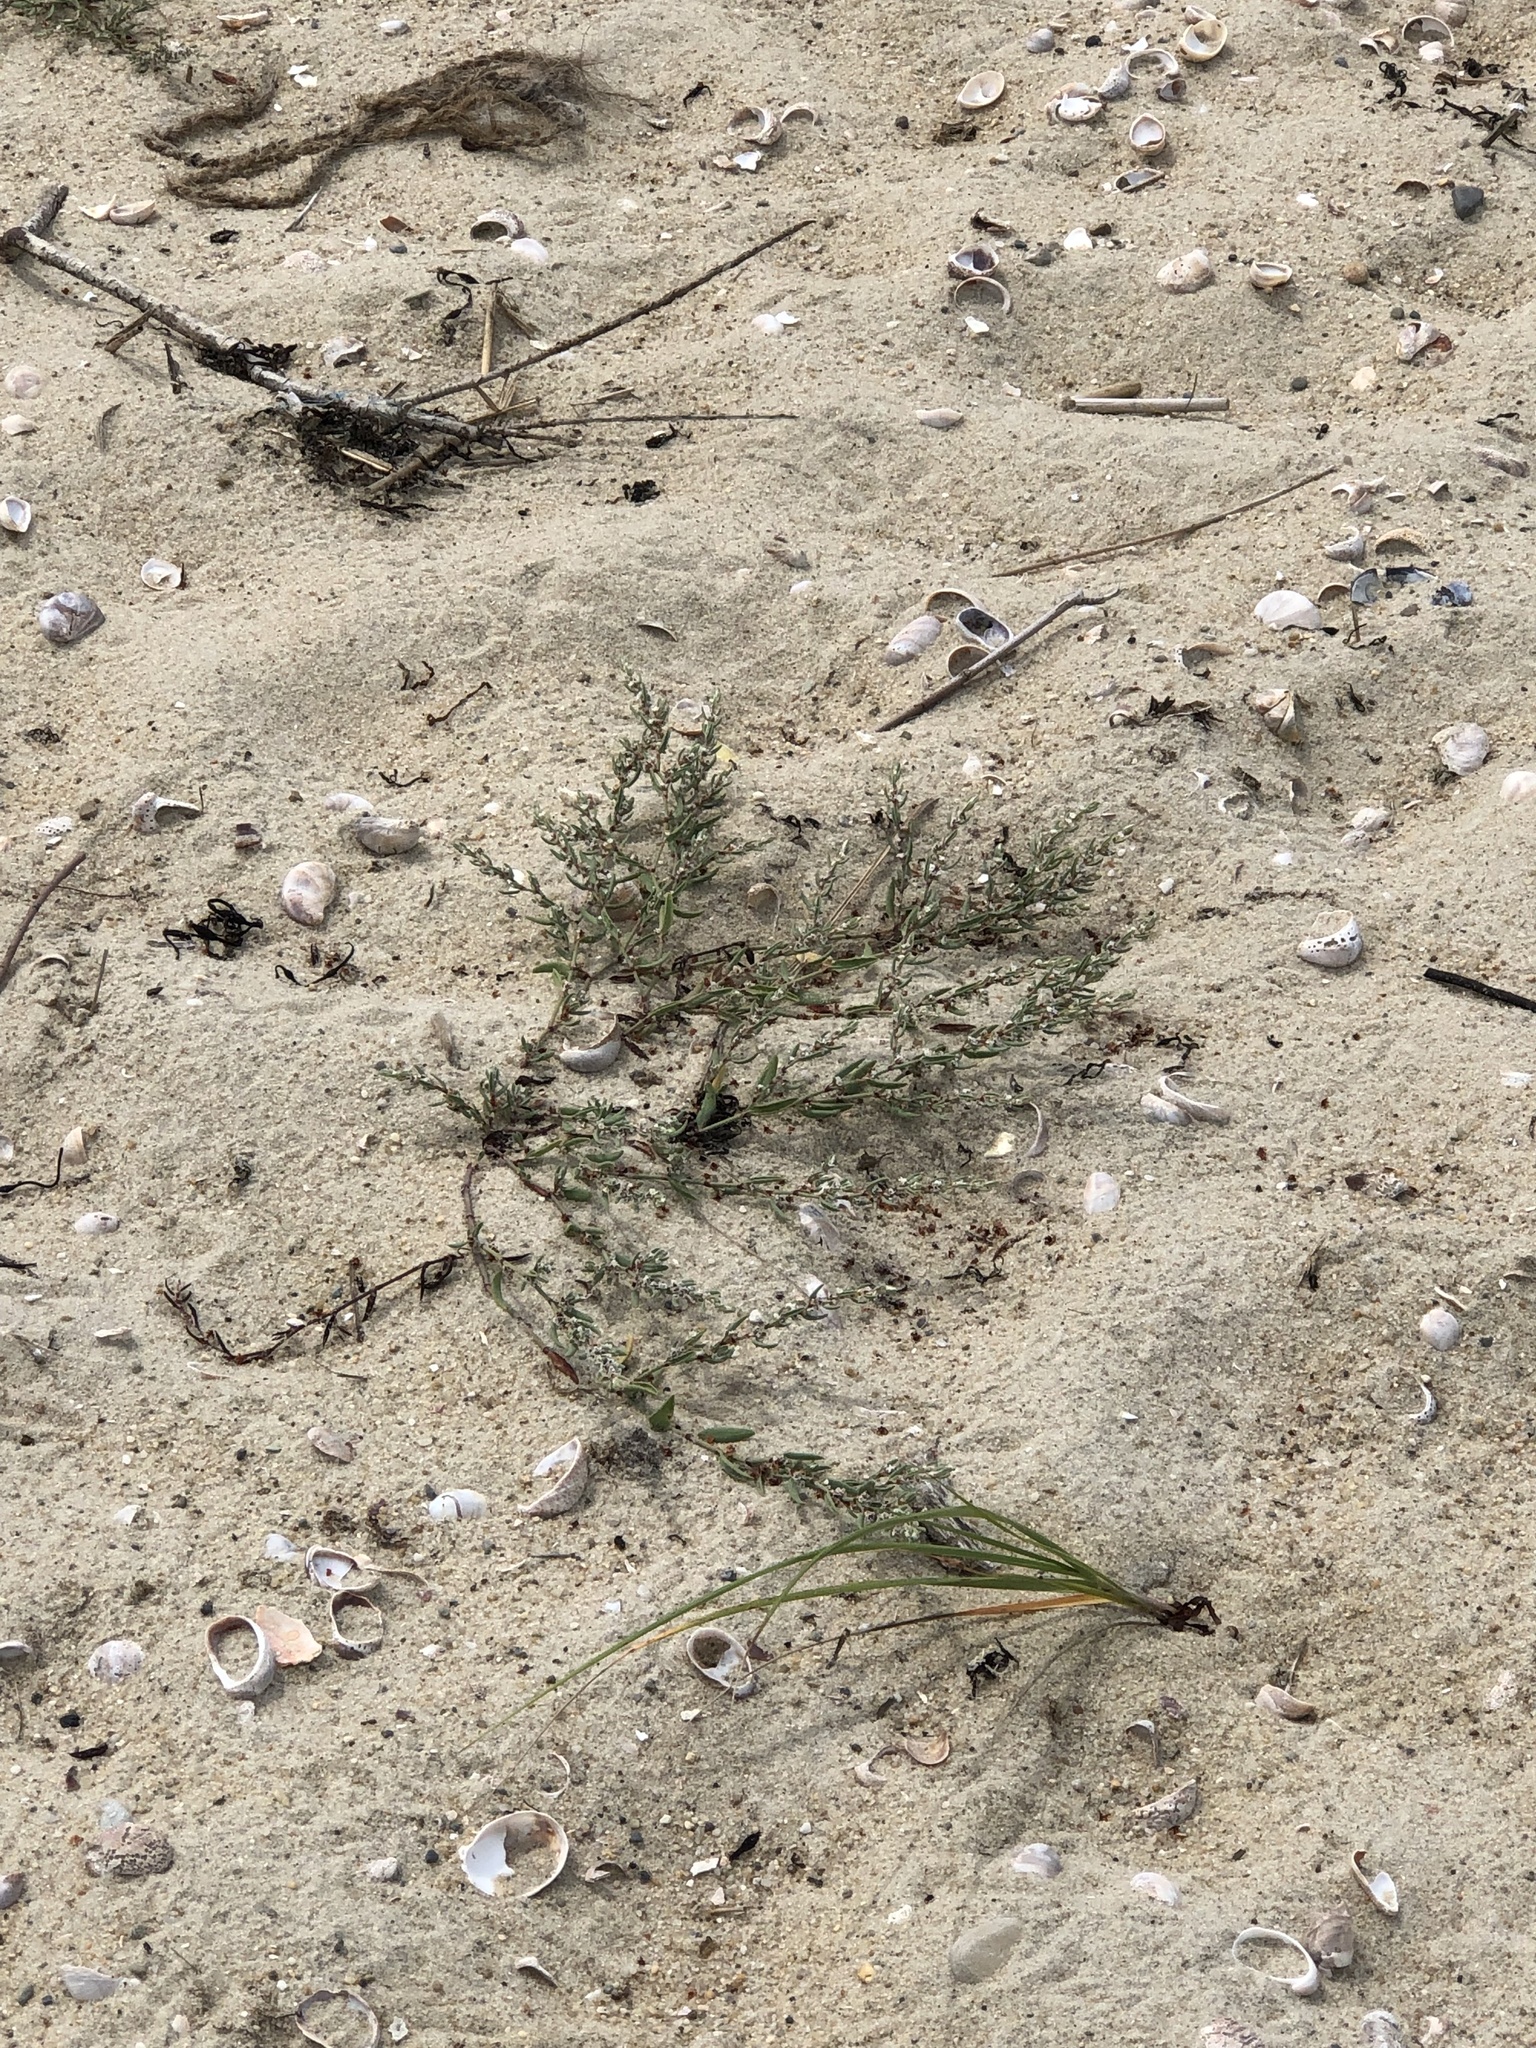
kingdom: Plantae
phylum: Tracheophyta
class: Magnoliopsida
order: Caryophyllales
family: Polygonaceae
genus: Polygonum
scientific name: Polygonum aviculare
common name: Prostrate knotweed
